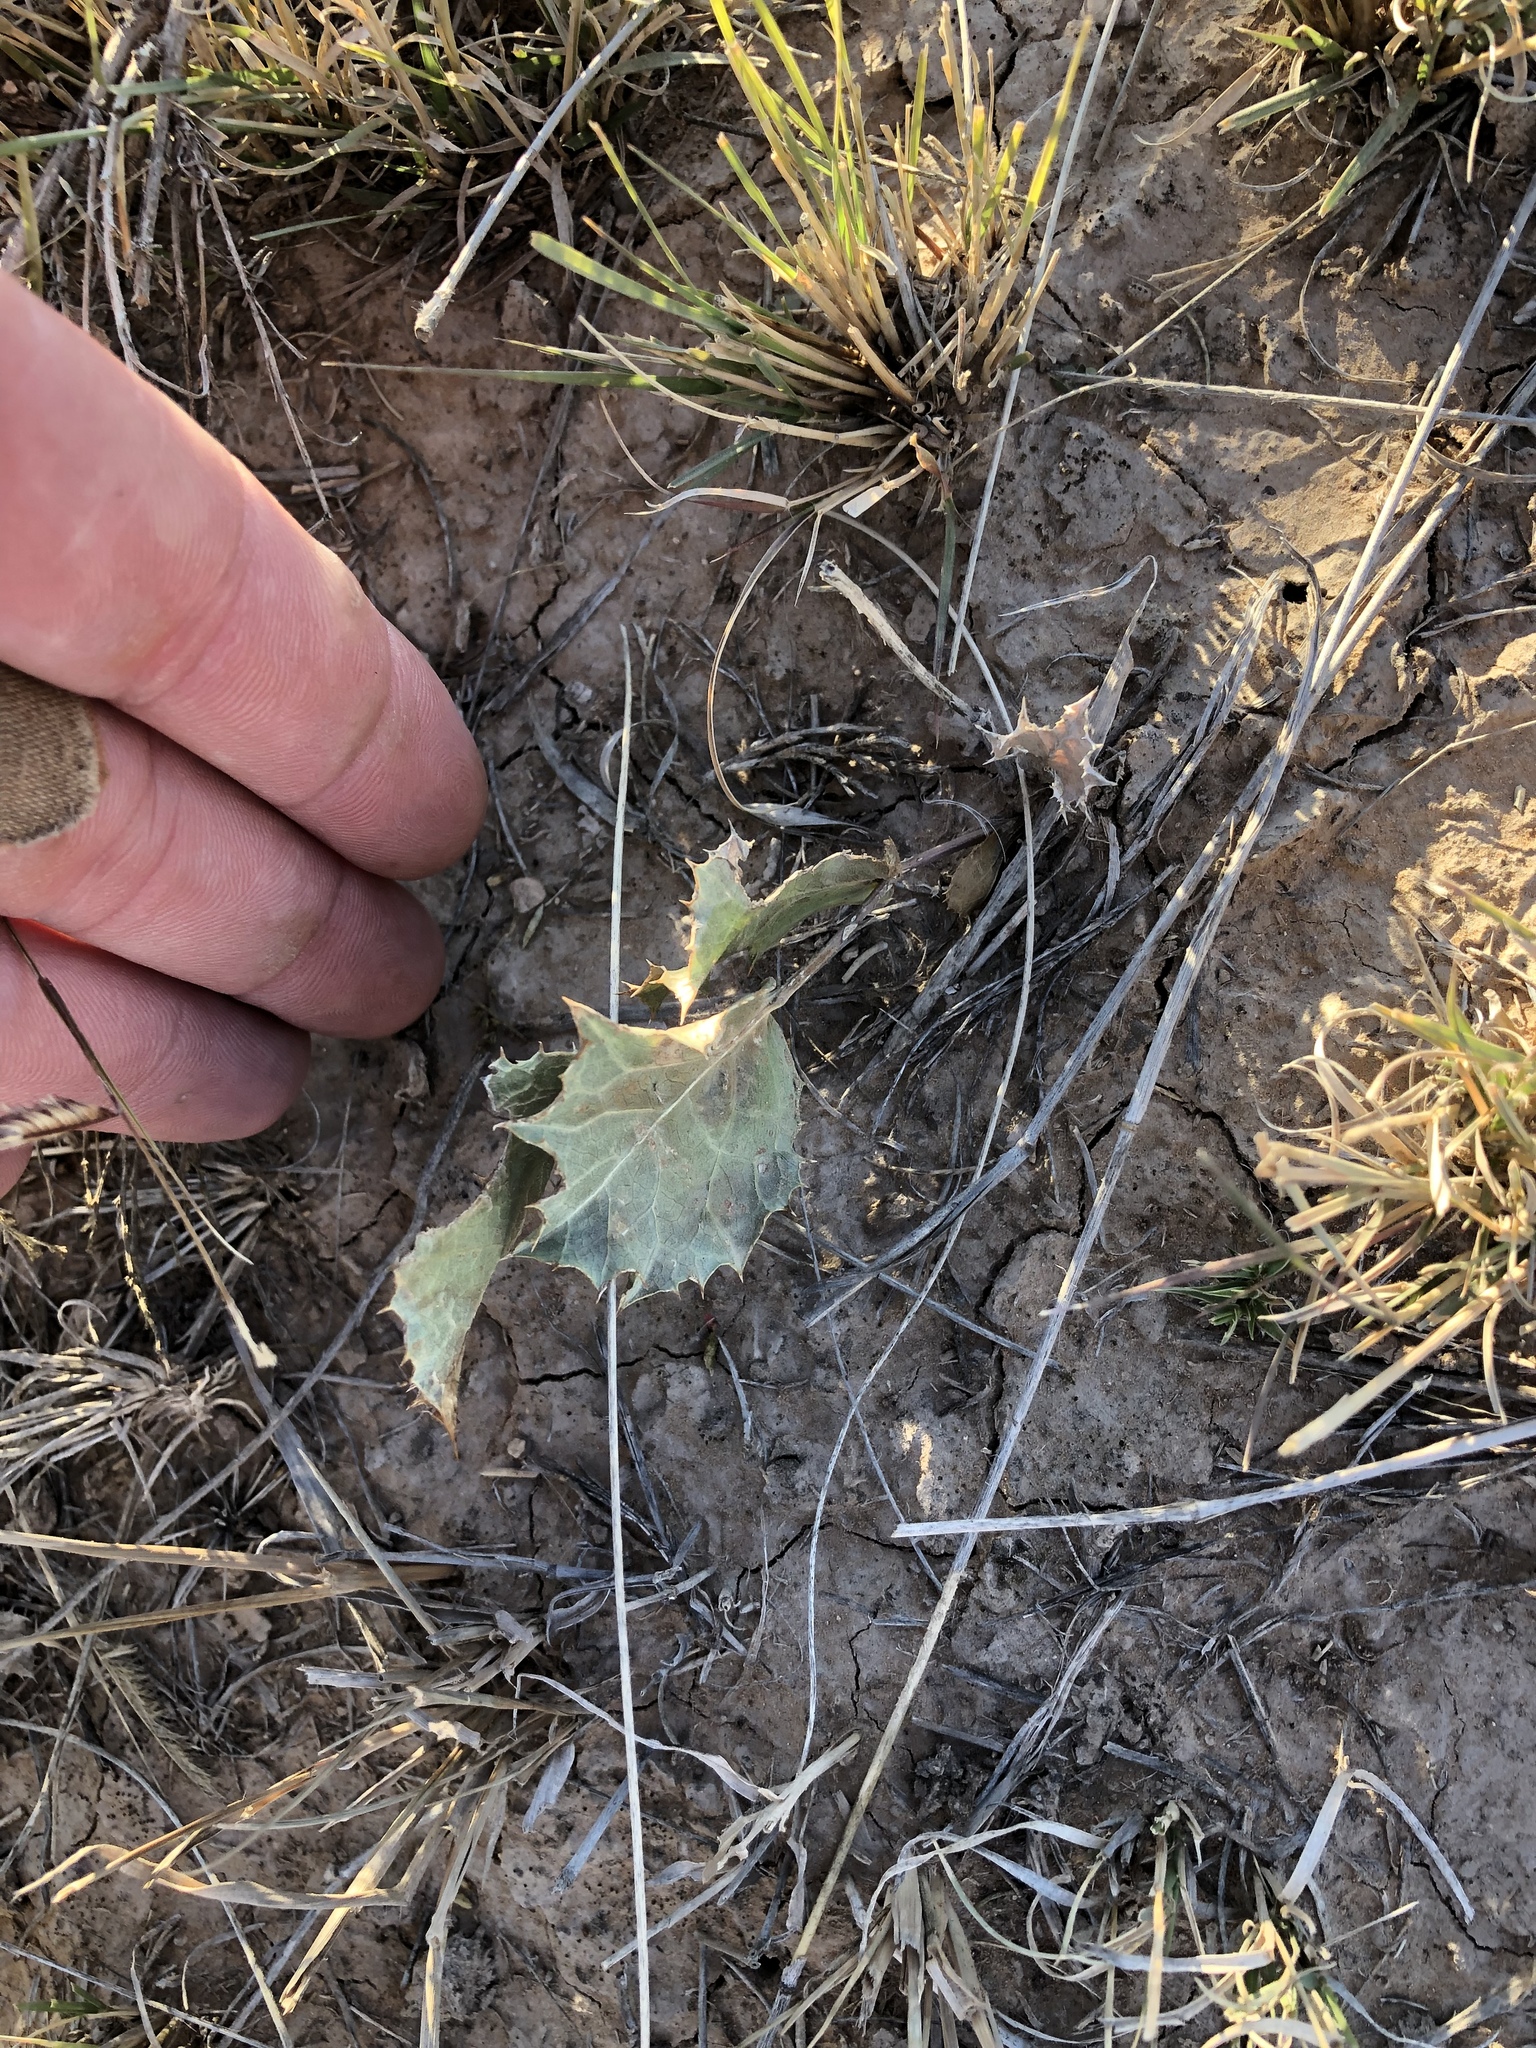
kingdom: Plantae
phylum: Tracheophyta
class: Magnoliopsida
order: Asterales
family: Asteraceae
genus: Acourtia
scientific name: Acourtia nana
